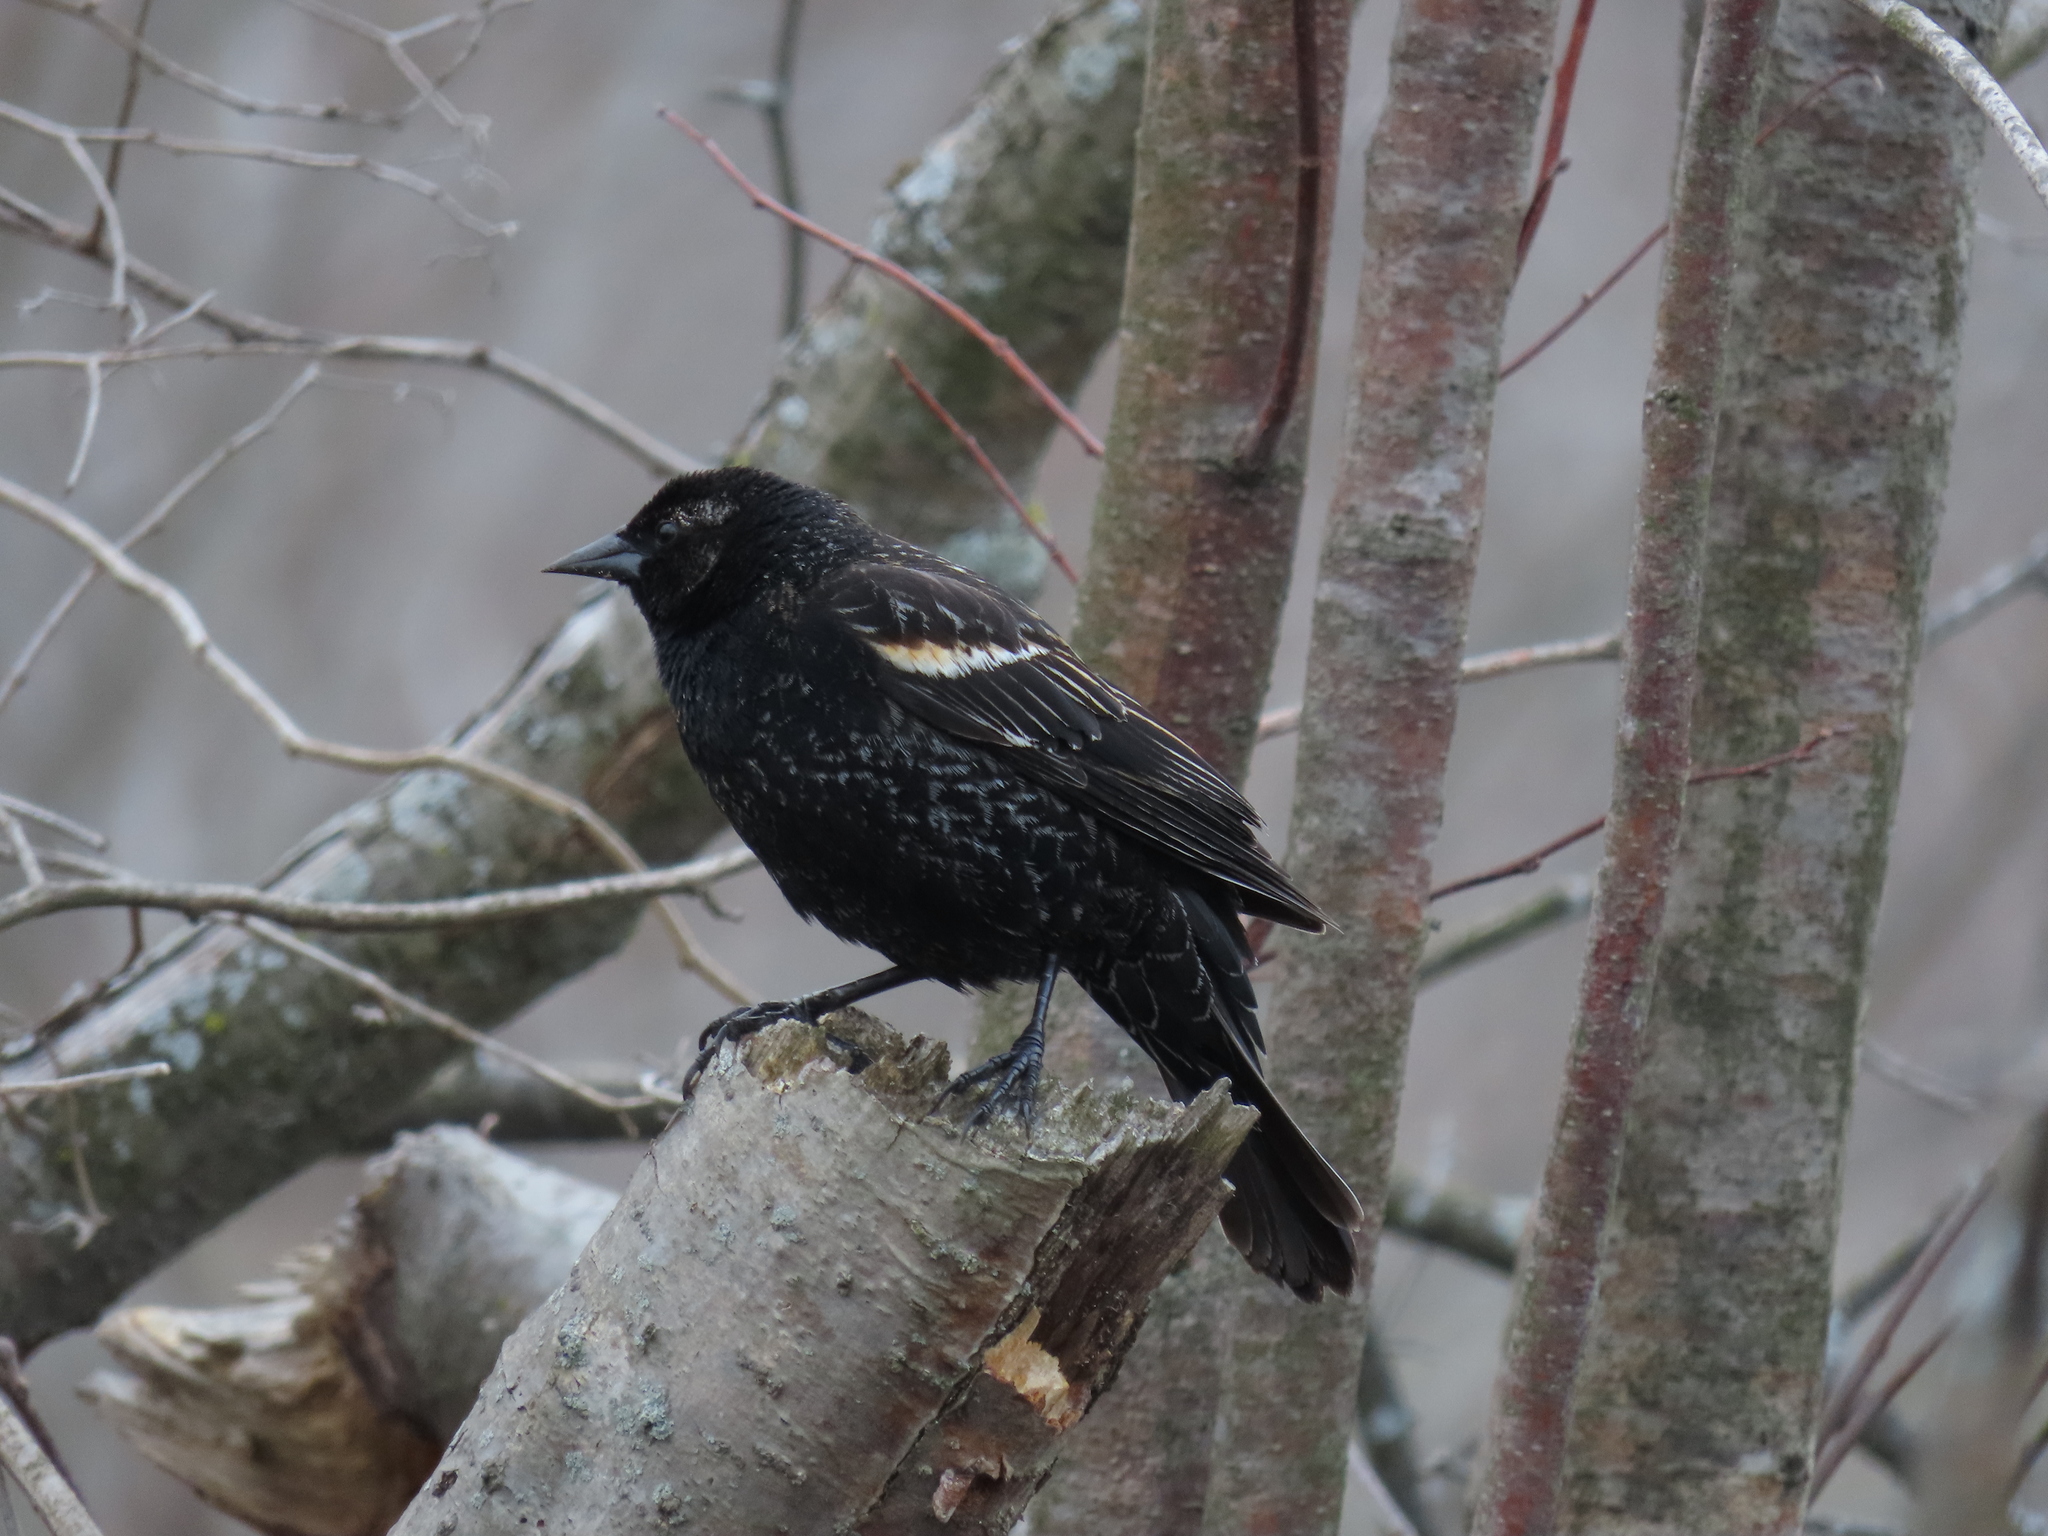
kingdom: Animalia
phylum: Chordata
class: Aves
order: Passeriformes
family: Icteridae
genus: Agelaius
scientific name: Agelaius phoeniceus
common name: Red-winged blackbird
